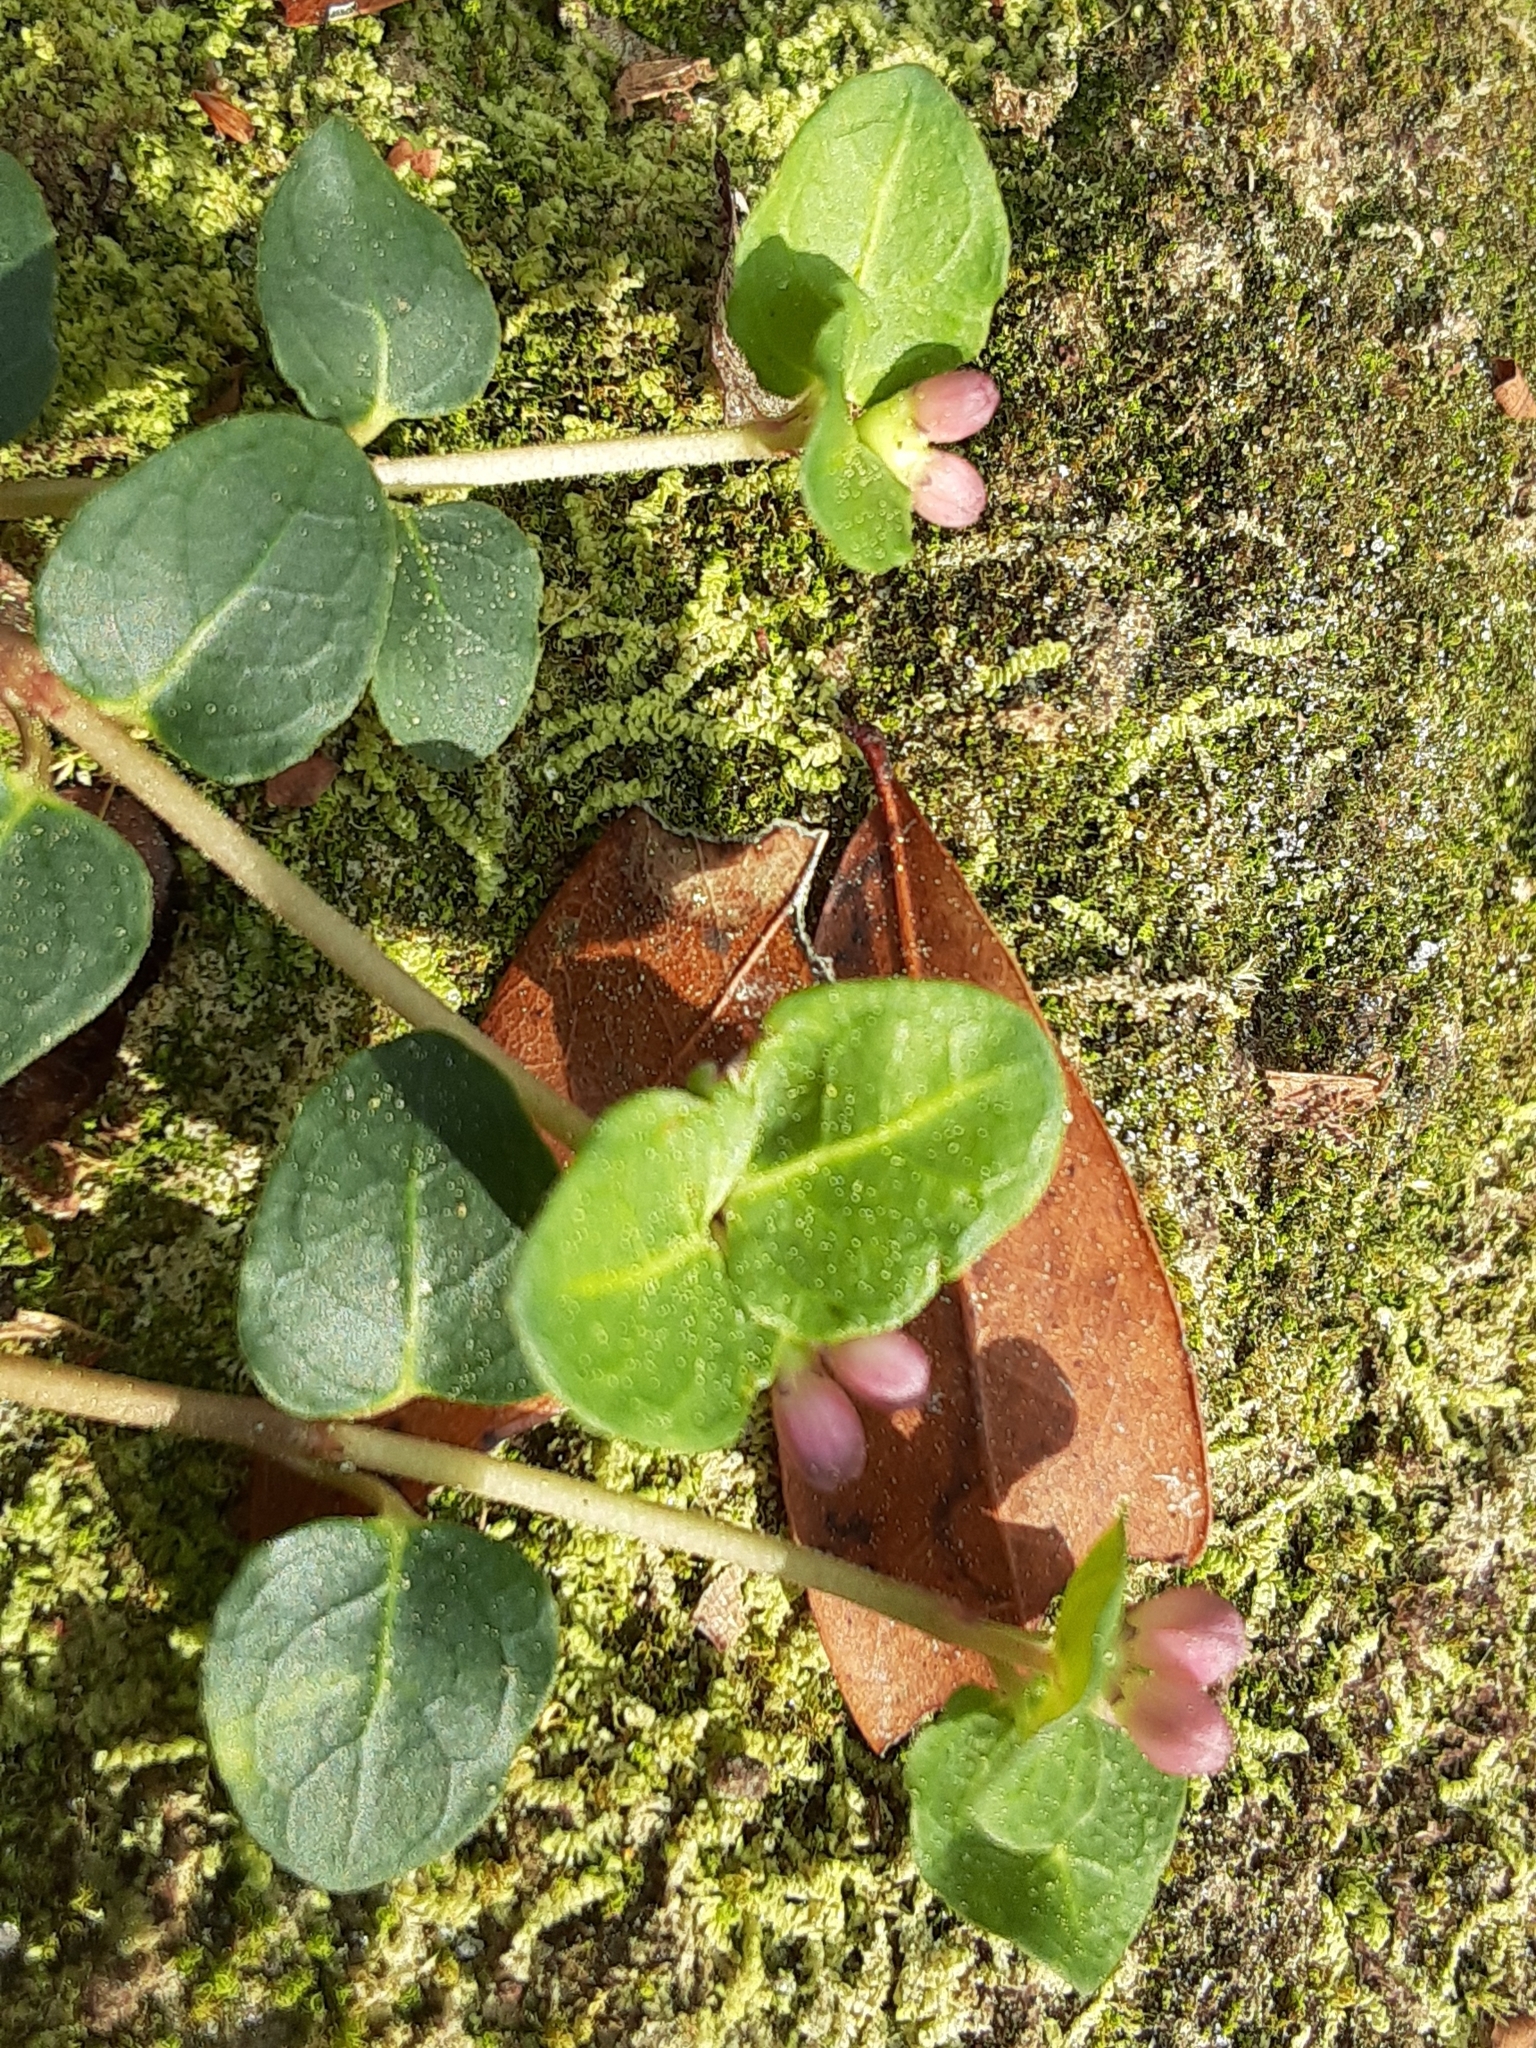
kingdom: Plantae
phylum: Tracheophyta
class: Magnoliopsida
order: Gentianales
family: Rubiaceae
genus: Mitchella
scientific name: Mitchella repens
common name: Partridge-berry
